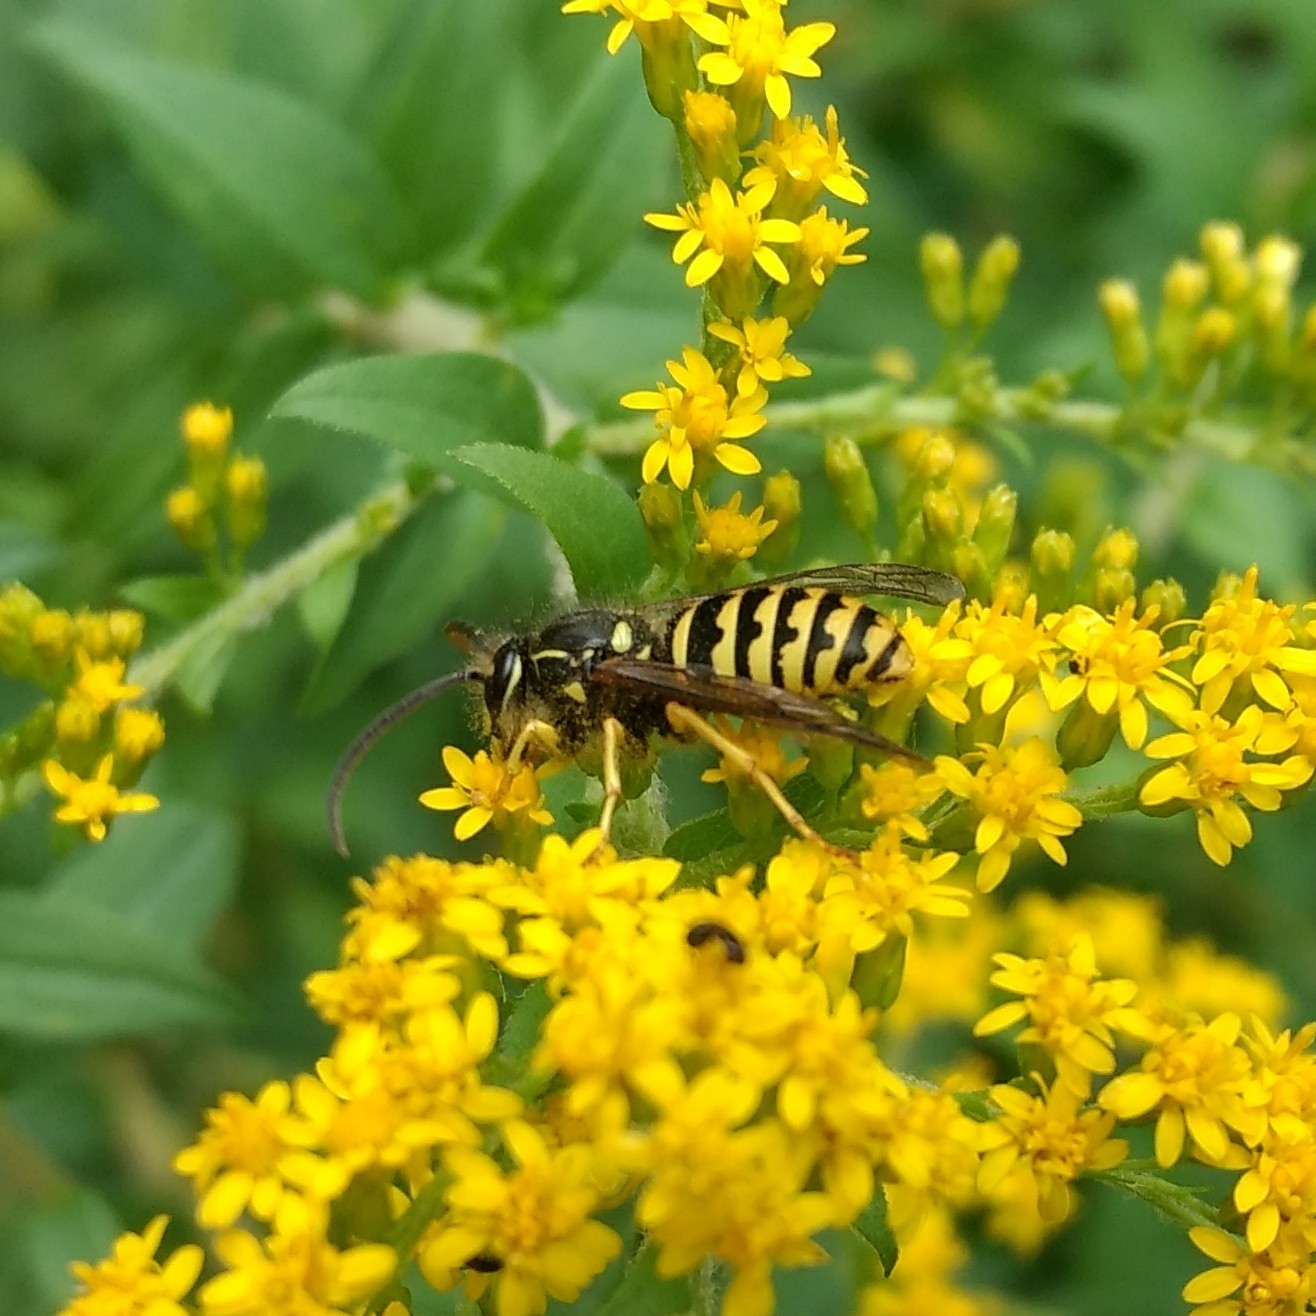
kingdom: Animalia
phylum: Arthropoda
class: Insecta
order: Hymenoptera
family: Vespidae
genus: Dolichovespula
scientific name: Dolichovespula arenaria
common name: Aerial yellowjacket
